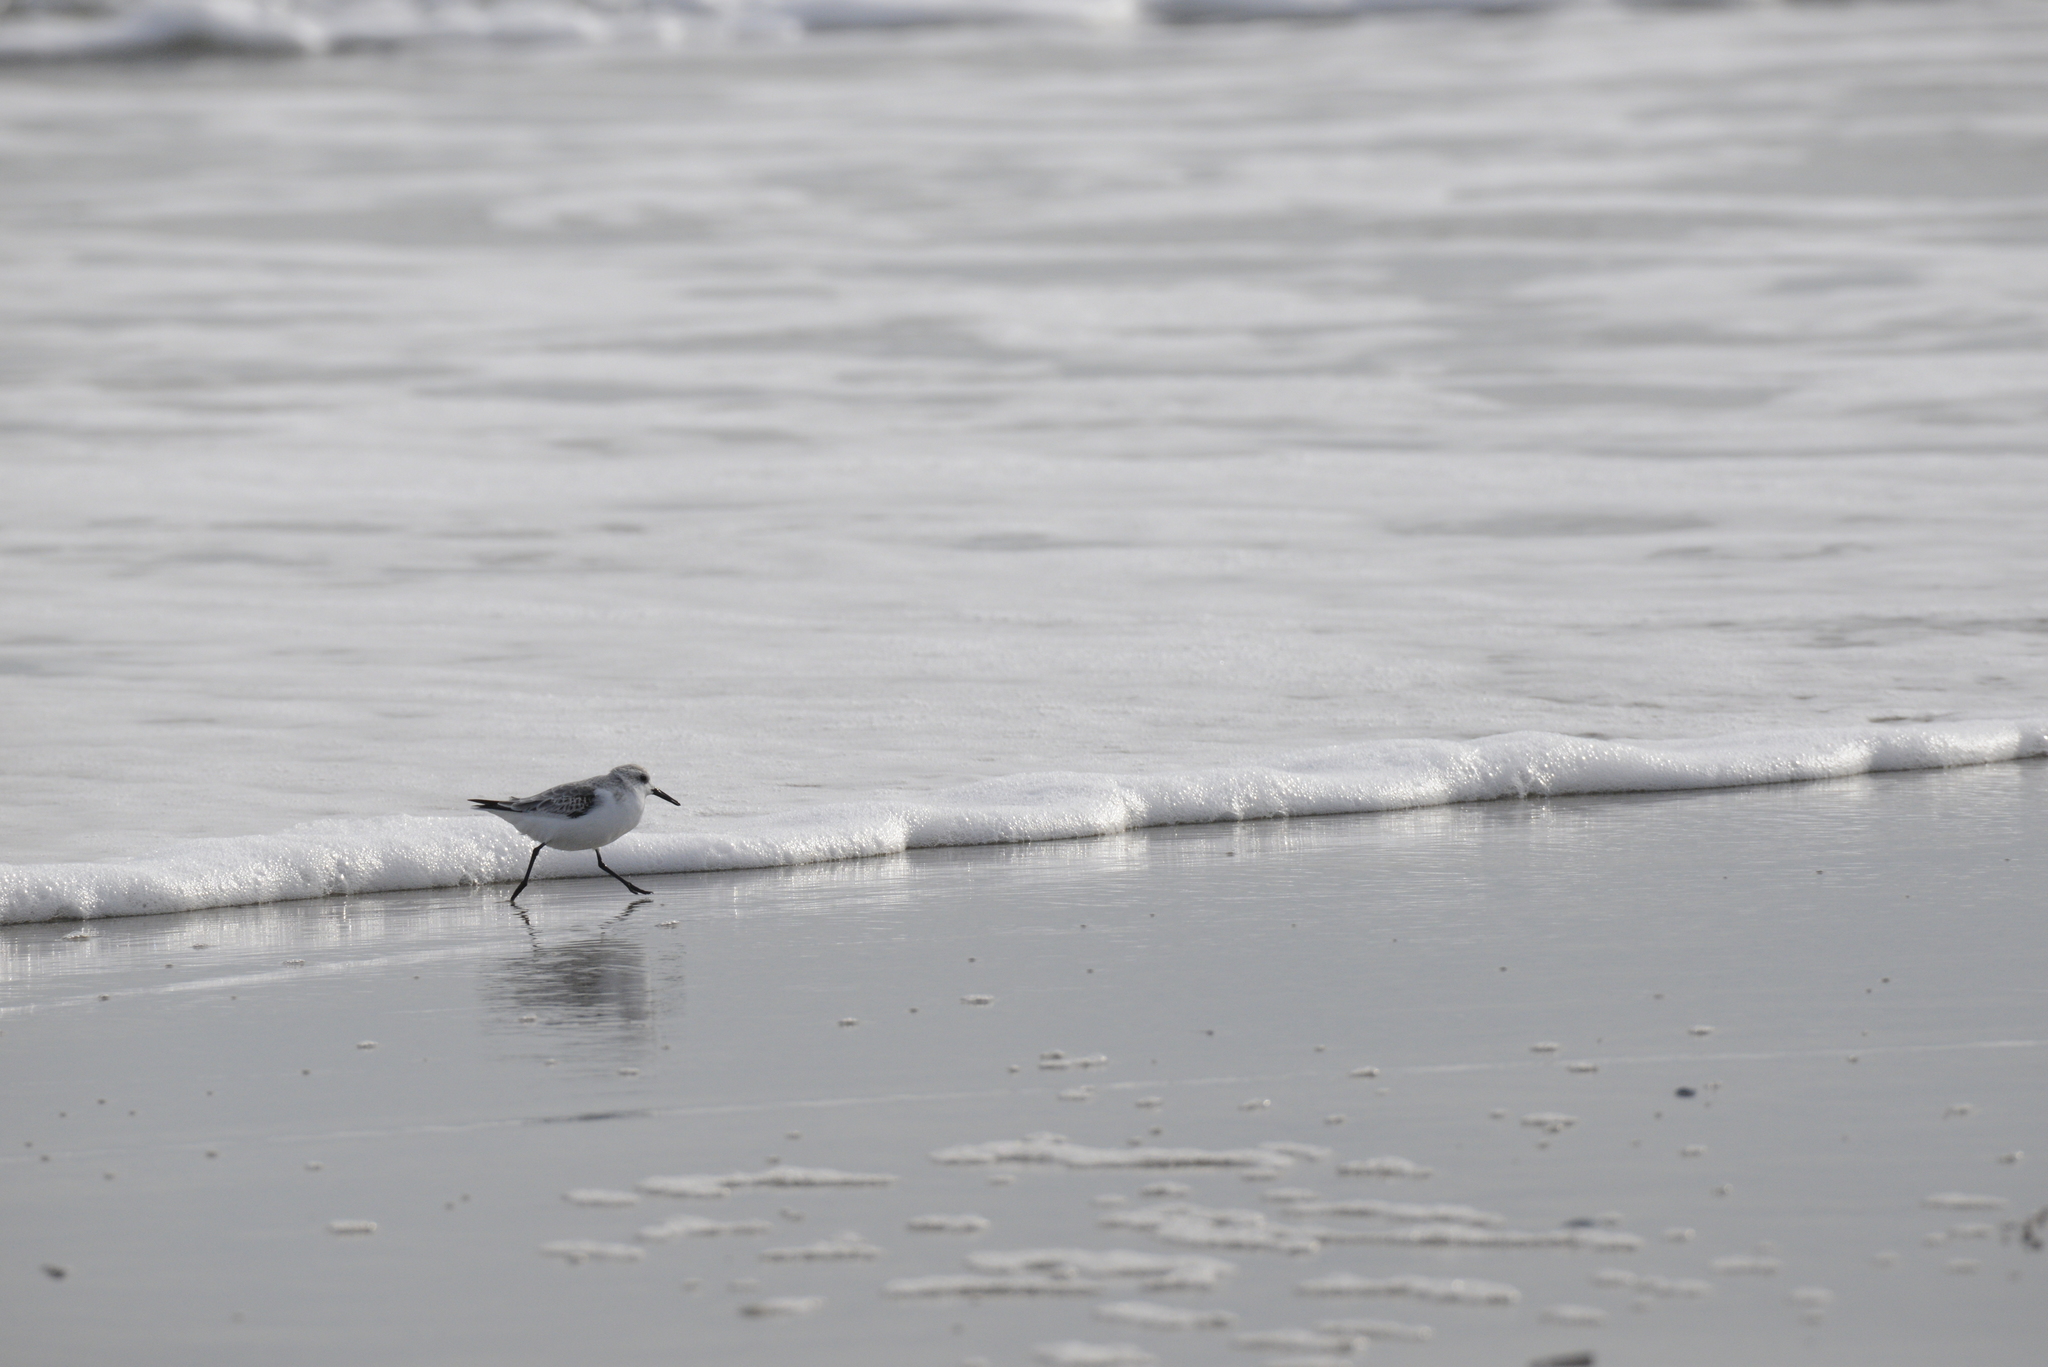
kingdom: Animalia
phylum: Chordata
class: Aves
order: Charadriiformes
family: Scolopacidae
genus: Calidris
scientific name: Calidris alba
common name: Sanderling
